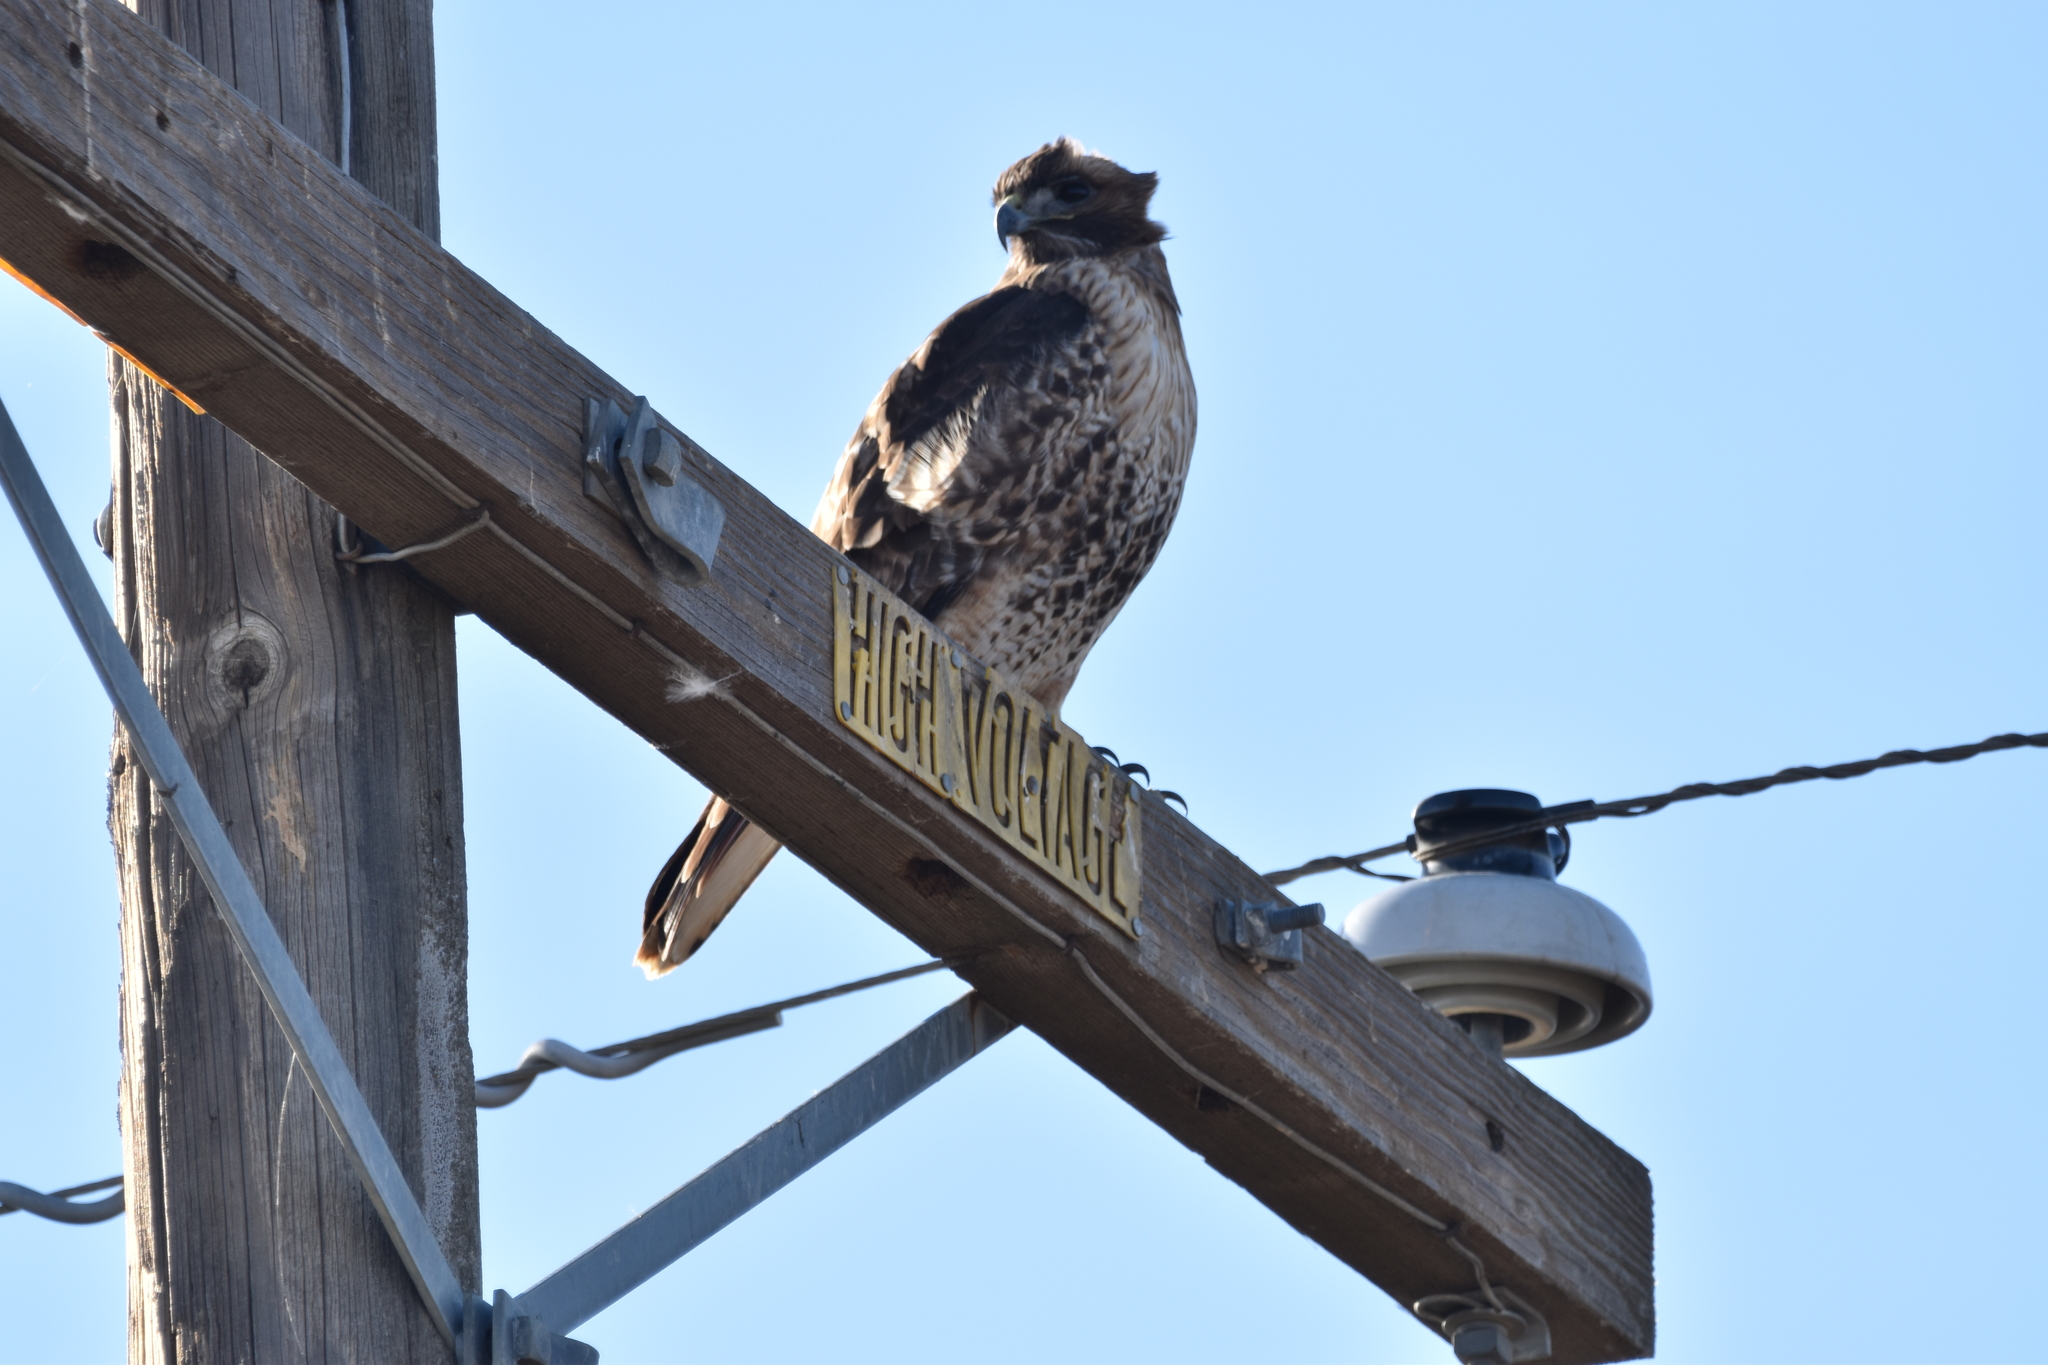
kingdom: Animalia
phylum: Chordata
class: Aves
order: Accipitriformes
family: Accipitridae
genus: Buteo
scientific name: Buteo jamaicensis
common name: Red-tailed hawk
